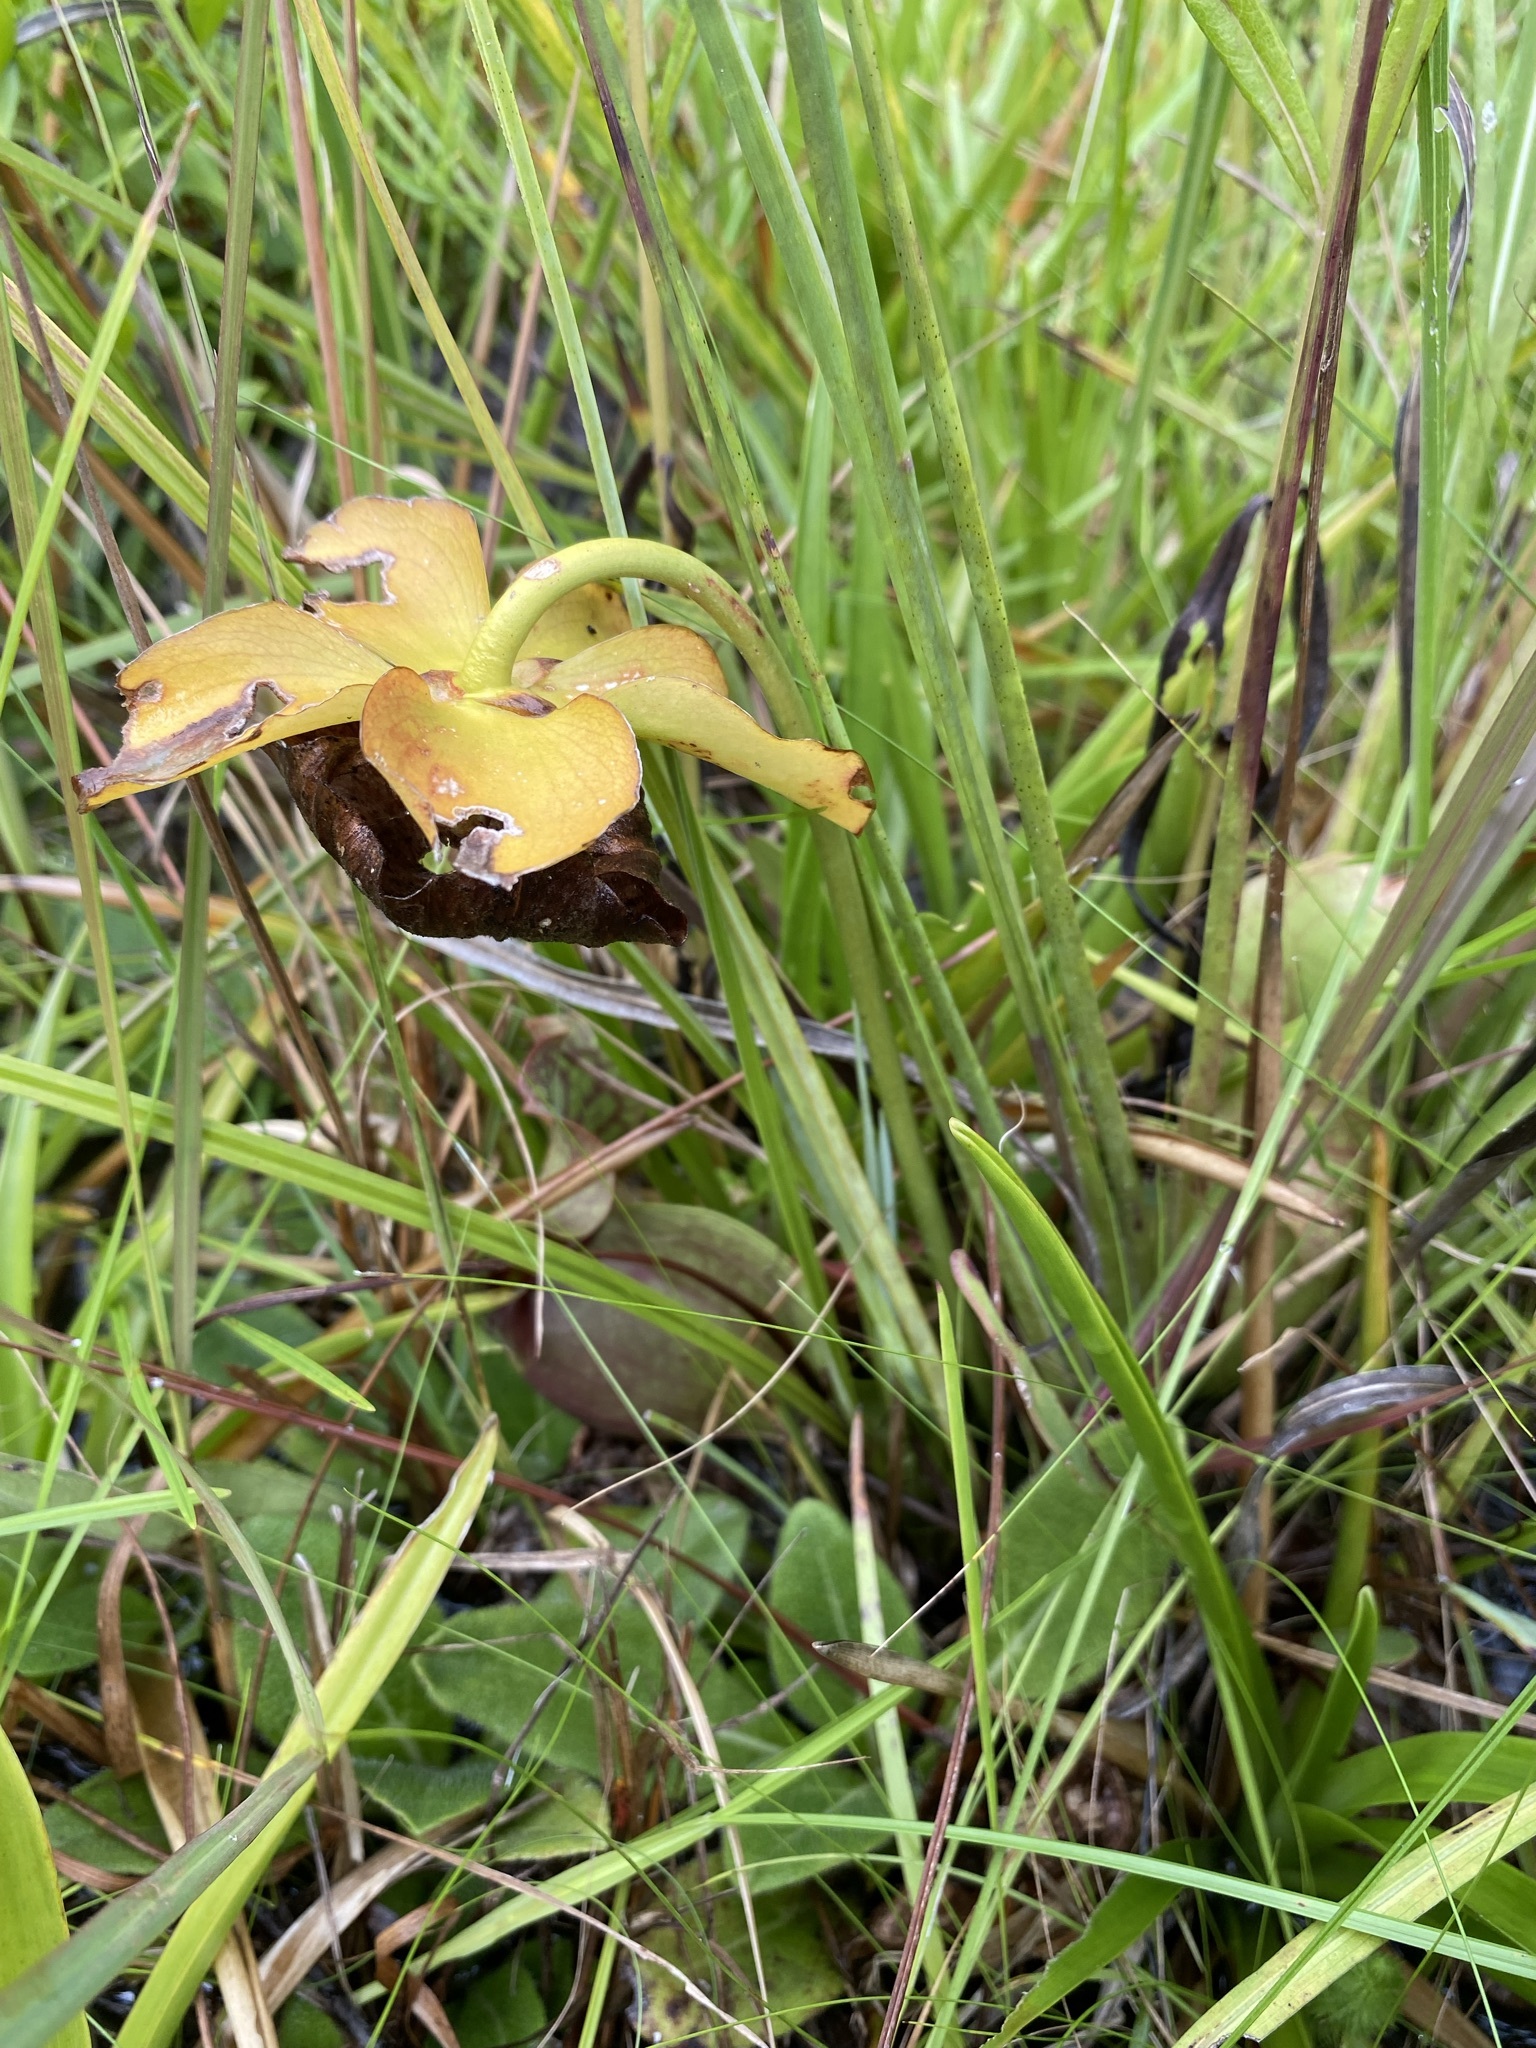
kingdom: Plantae
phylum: Tracheophyta
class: Magnoliopsida
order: Ericales
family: Sarraceniaceae
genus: Sarracenia
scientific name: Sarracenia rosea
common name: Pink pitcherplant
